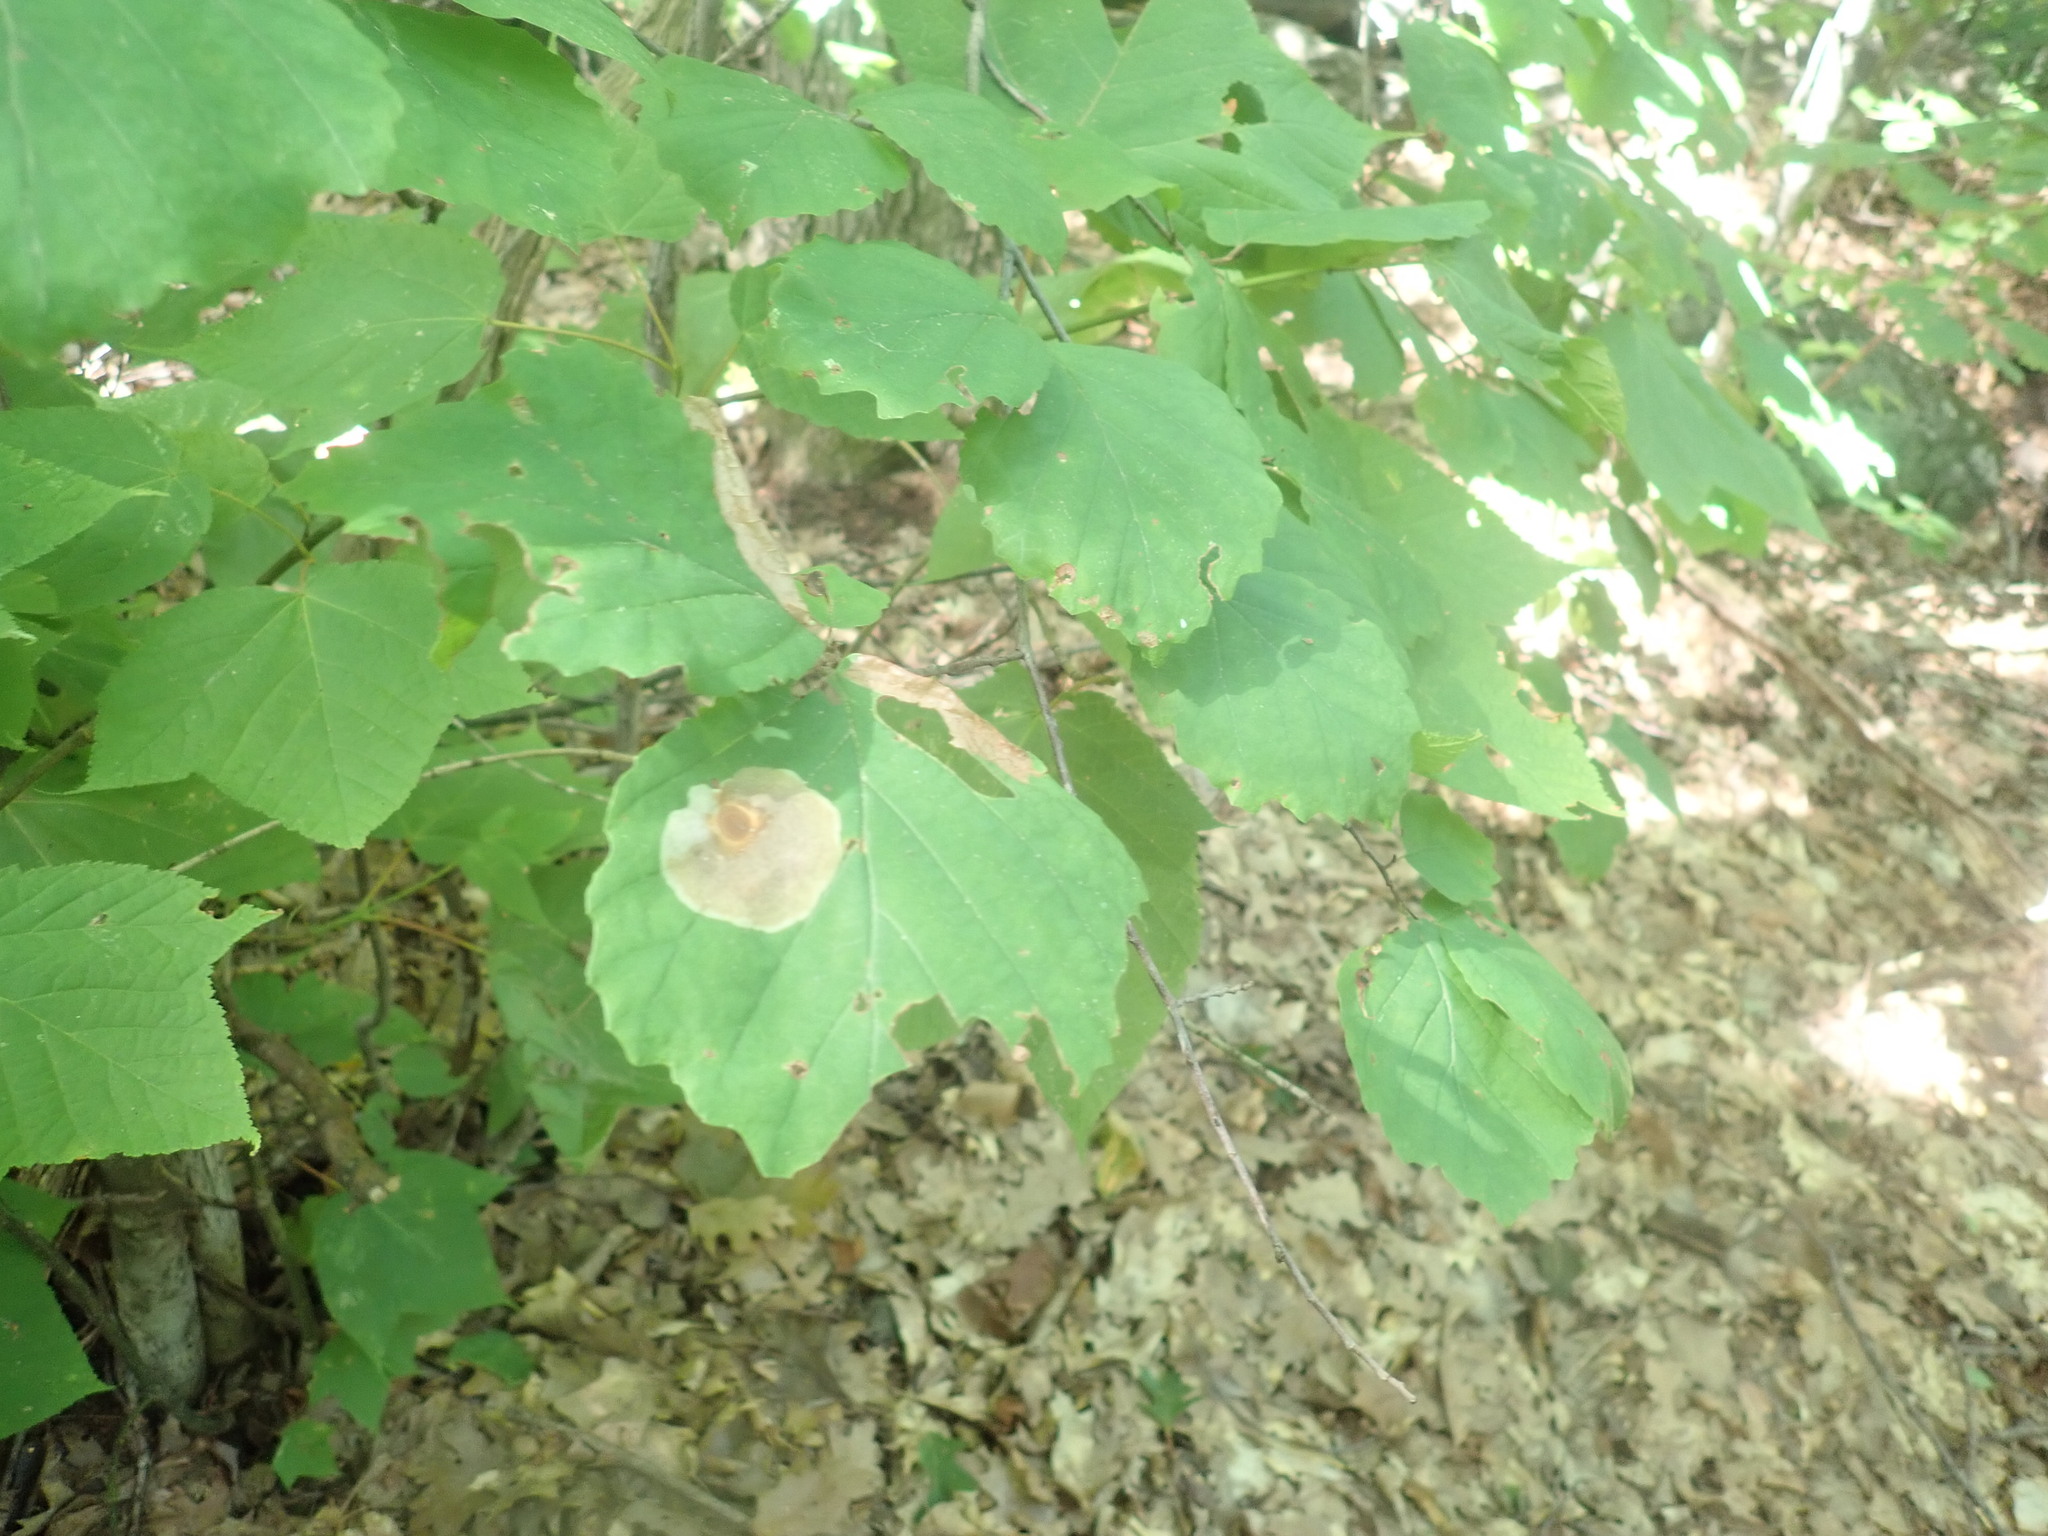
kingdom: Plantae
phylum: Tracheophyta
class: Magnoliopsida
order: Saxifragales
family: Hamamelidaceae
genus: Hamamelis
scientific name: Hamamelis virginiana
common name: Witch-hazel
